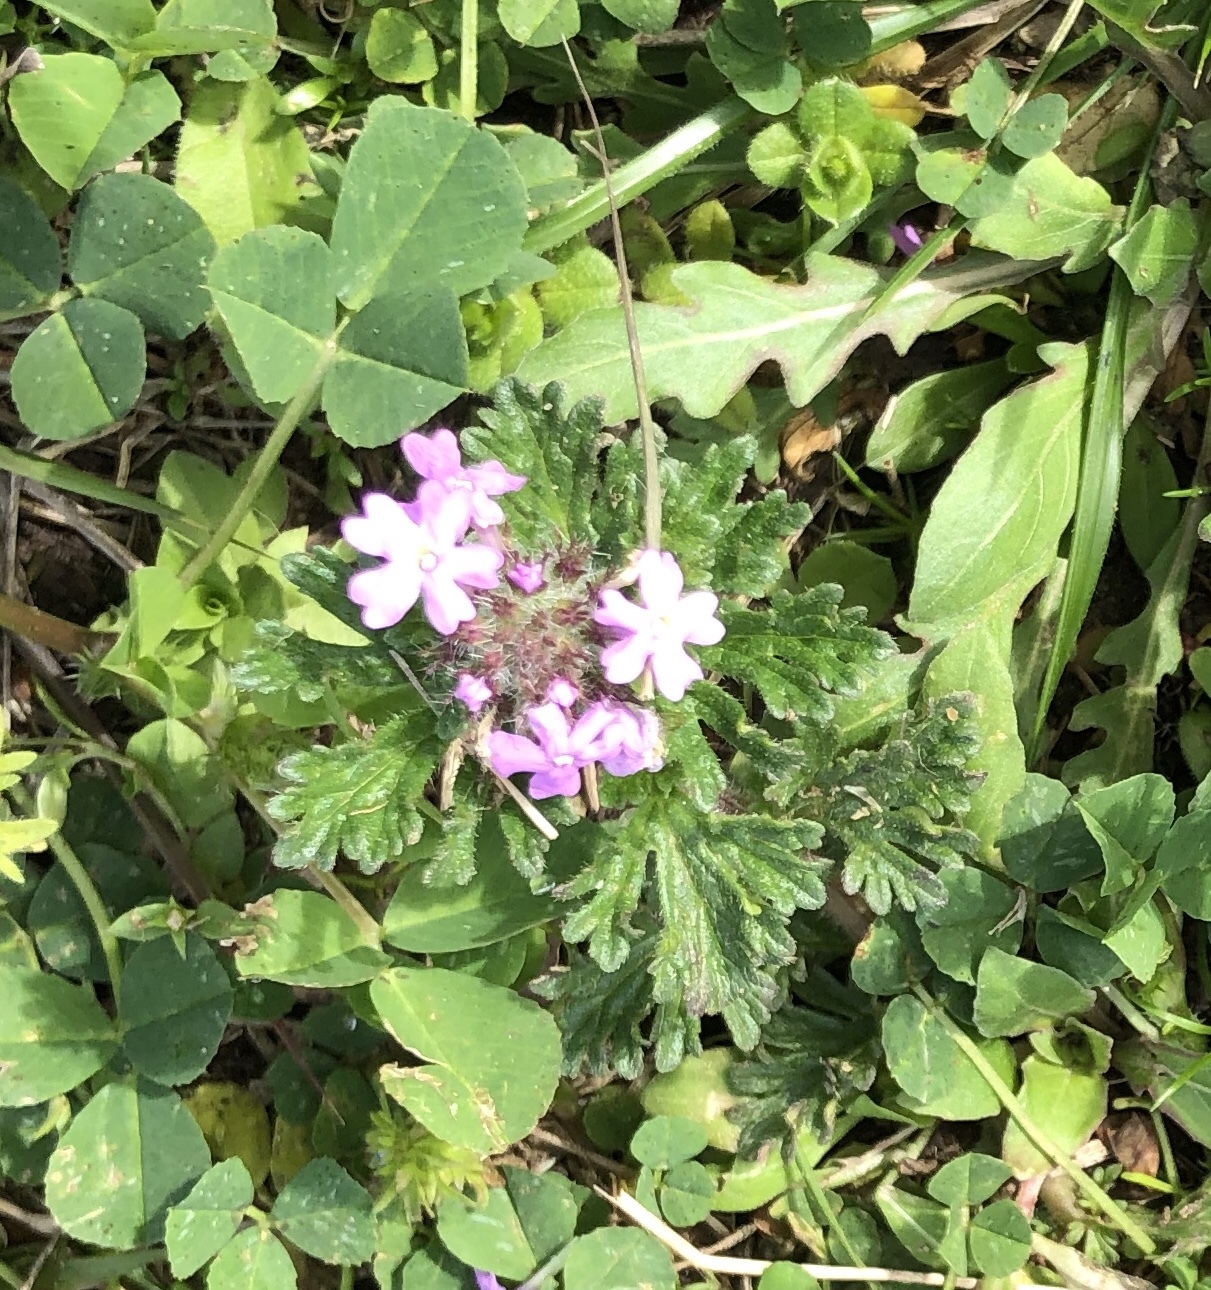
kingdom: Plantae
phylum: Tracheophyta
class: Magnoliopsida
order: Lamiales
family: Verbenaceae
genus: Verbena
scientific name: Verbena pumila
